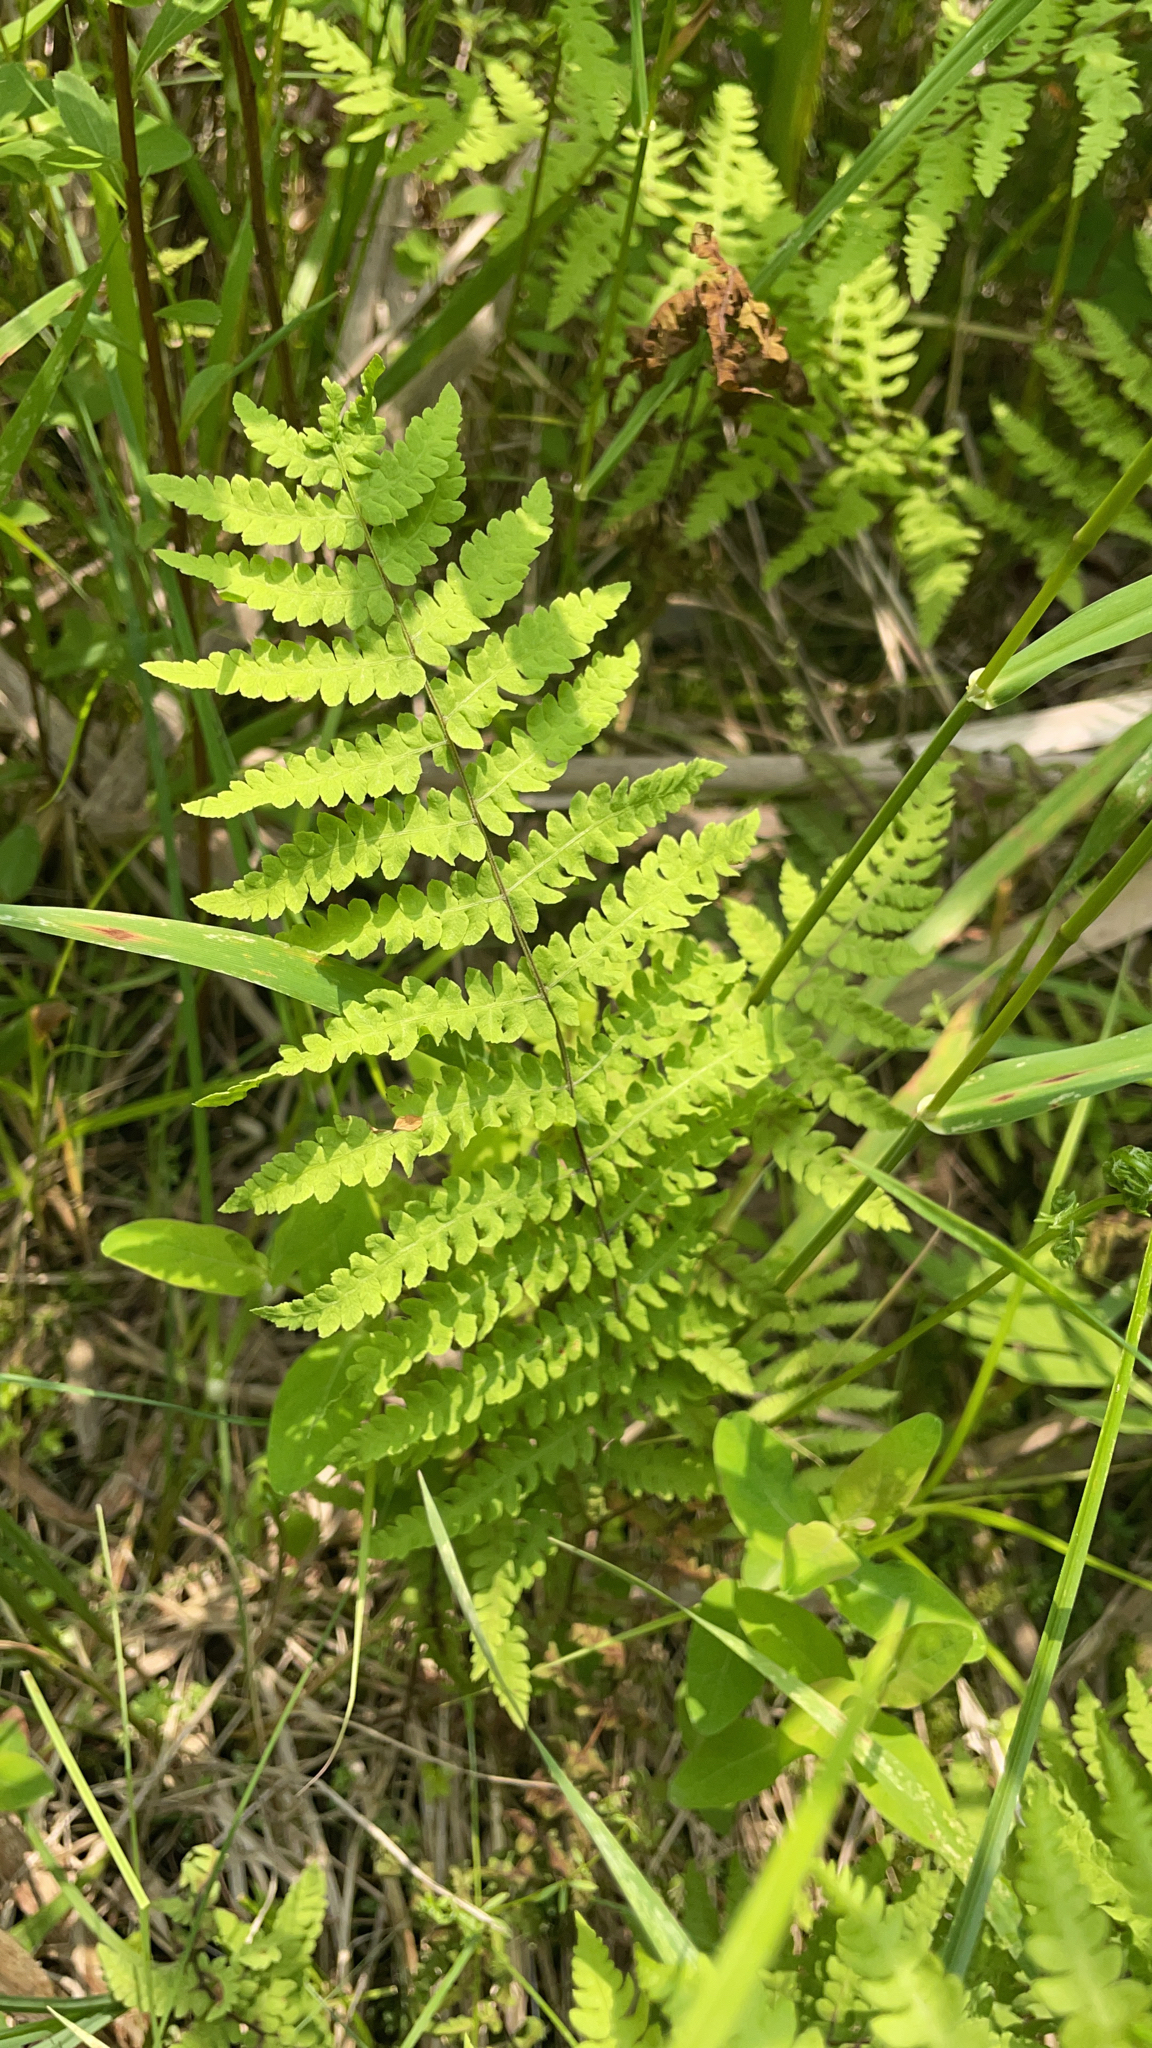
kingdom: Plantae
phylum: Tracheophyta
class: Polypodiopsida
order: Polypodiales
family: Thelypteridaceae
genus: Thelypteris
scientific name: Thelypteris palustris
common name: Marsh fern
